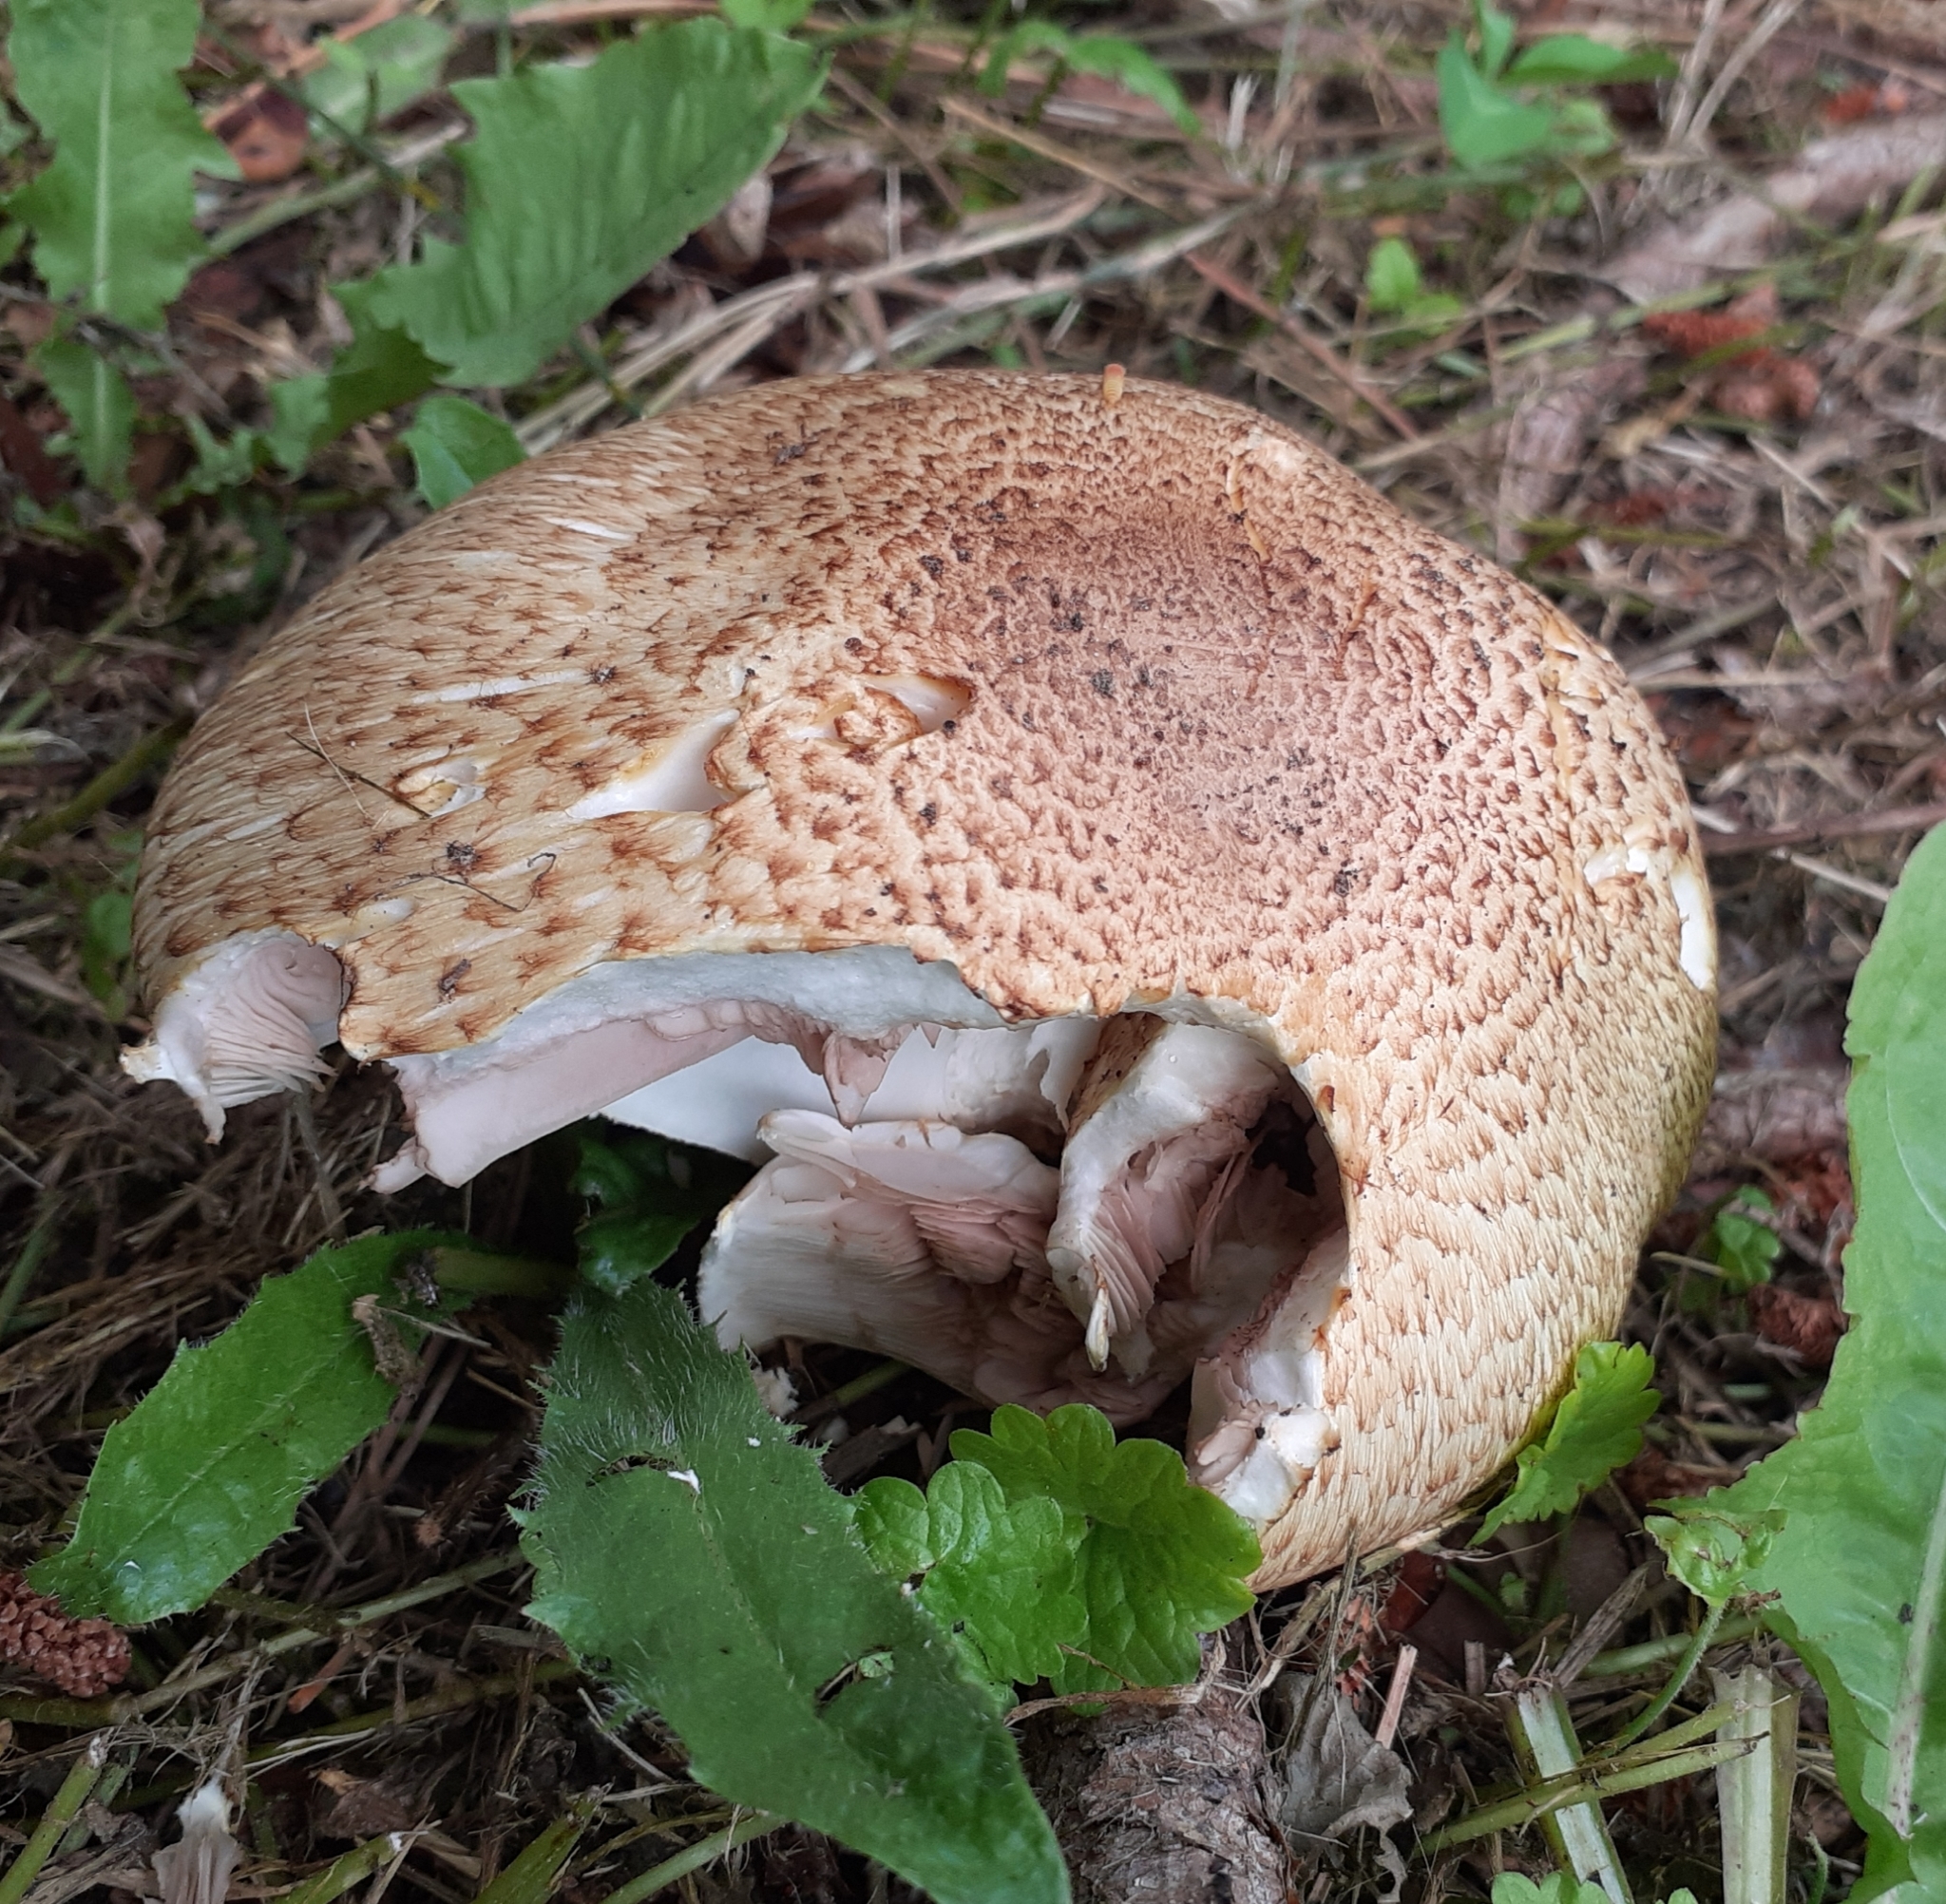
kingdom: Fungi
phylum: Basidiomycota
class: Agaricomycetes
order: Agaricales
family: Agaricaceae
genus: Agaricus
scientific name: Agaricus augustus
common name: Prince
